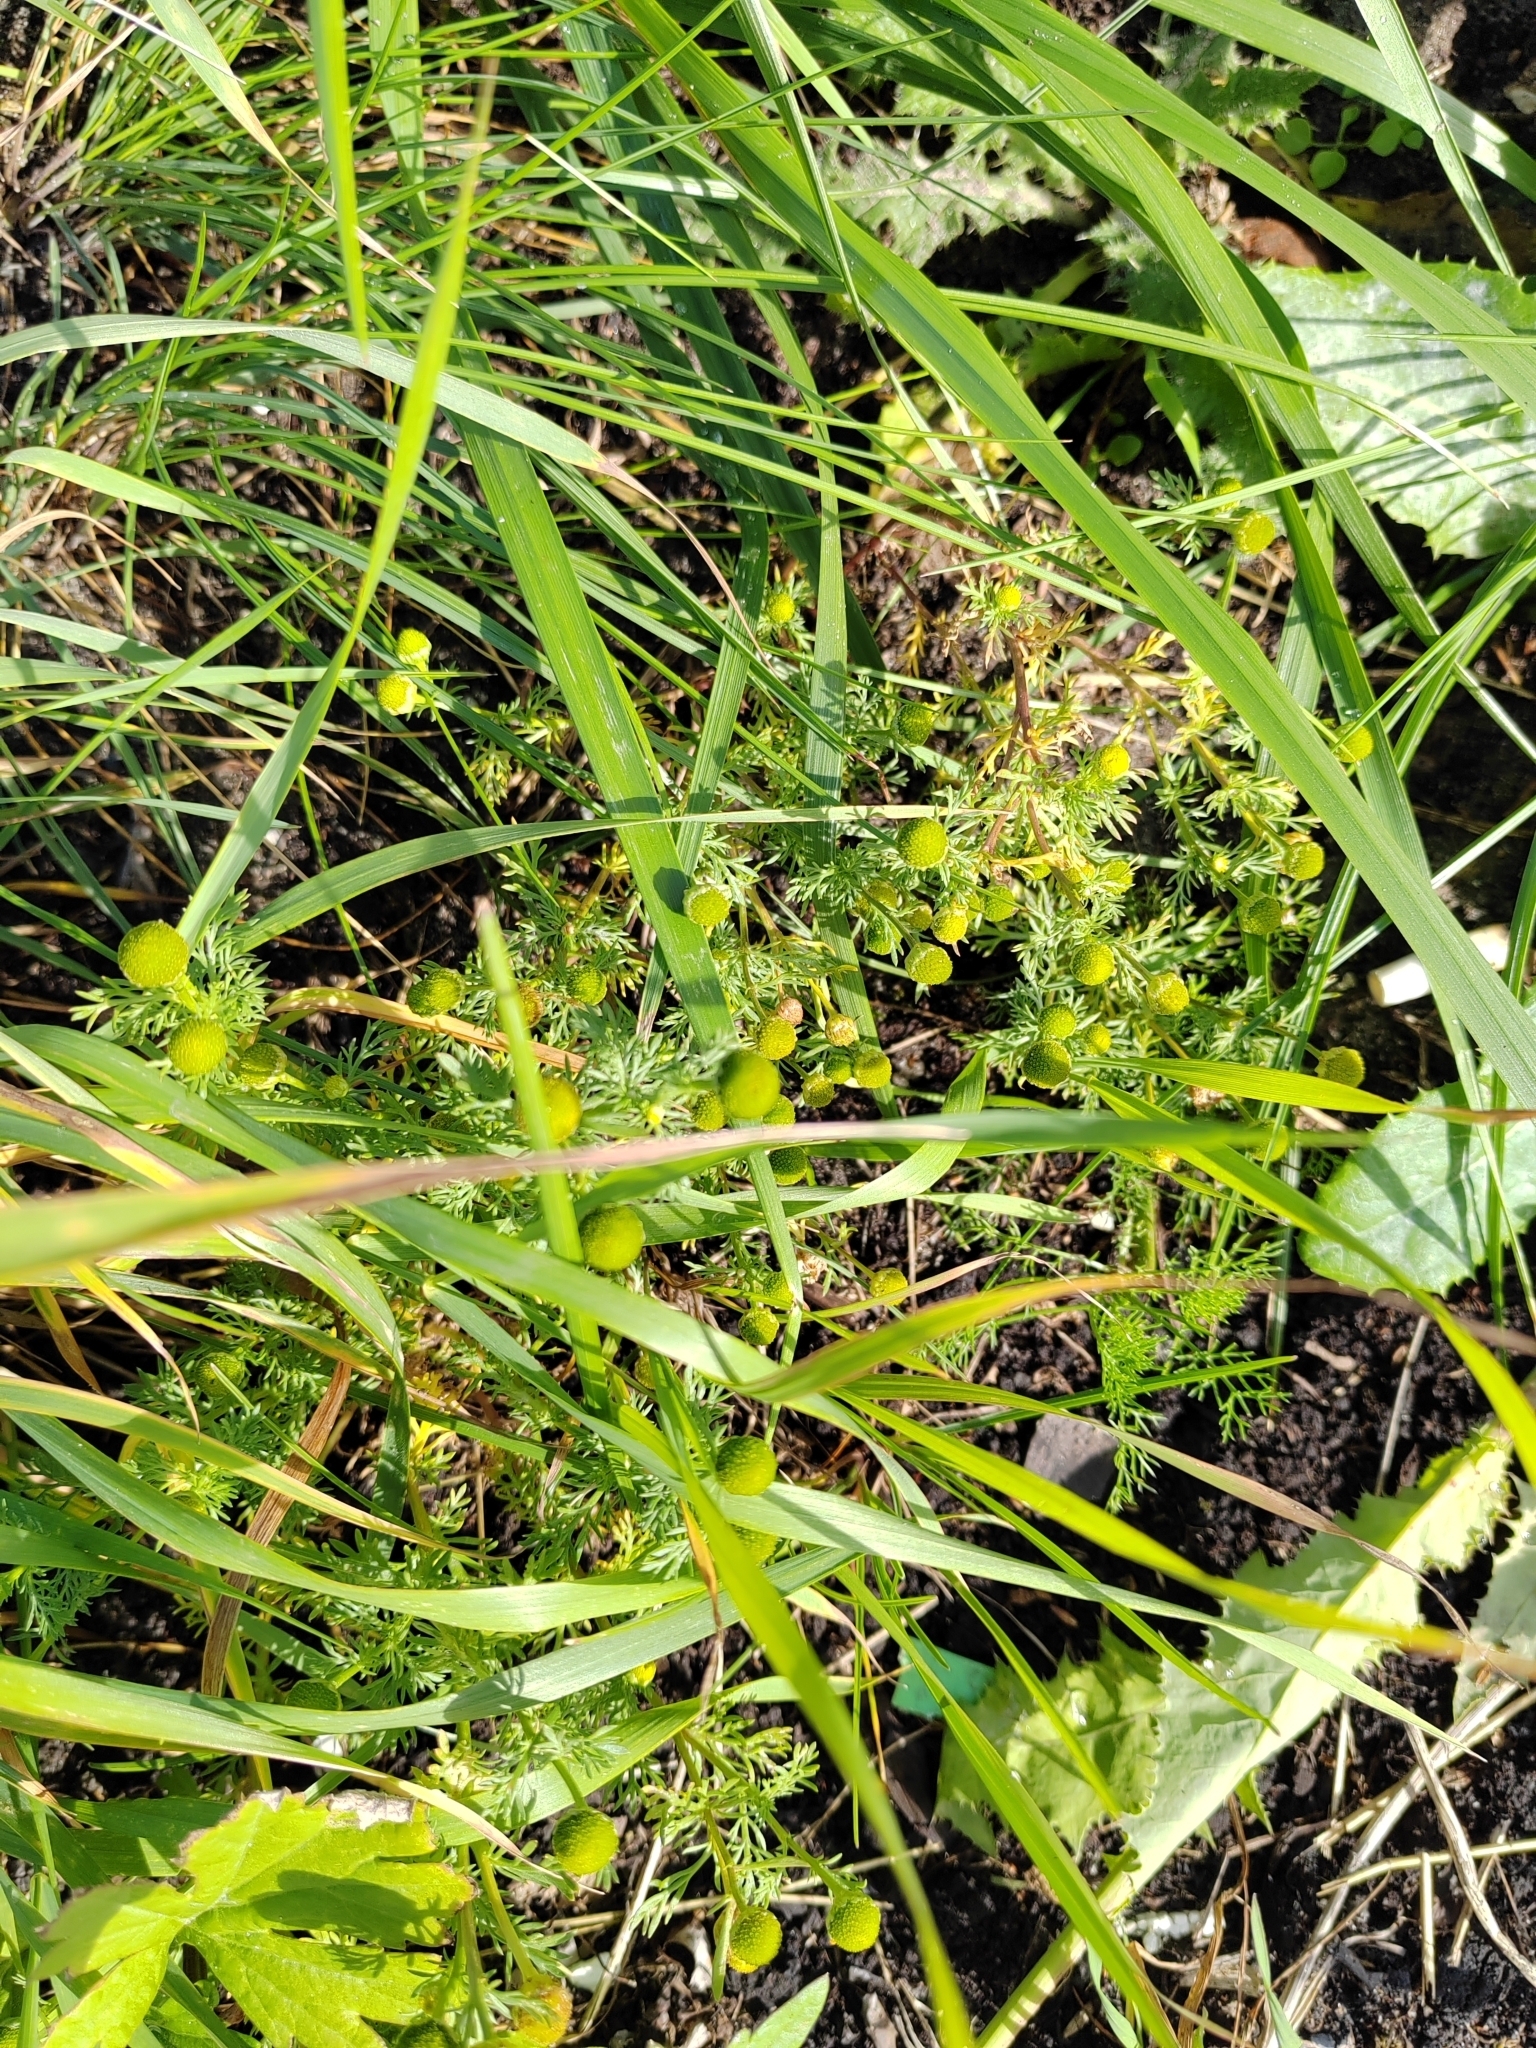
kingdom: Plantae
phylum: Tracheophyta
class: Magnoliopsida
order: Asterales
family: Asteraceae
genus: Matricaria
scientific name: Matricaria discoidea
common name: Disc mayweed
